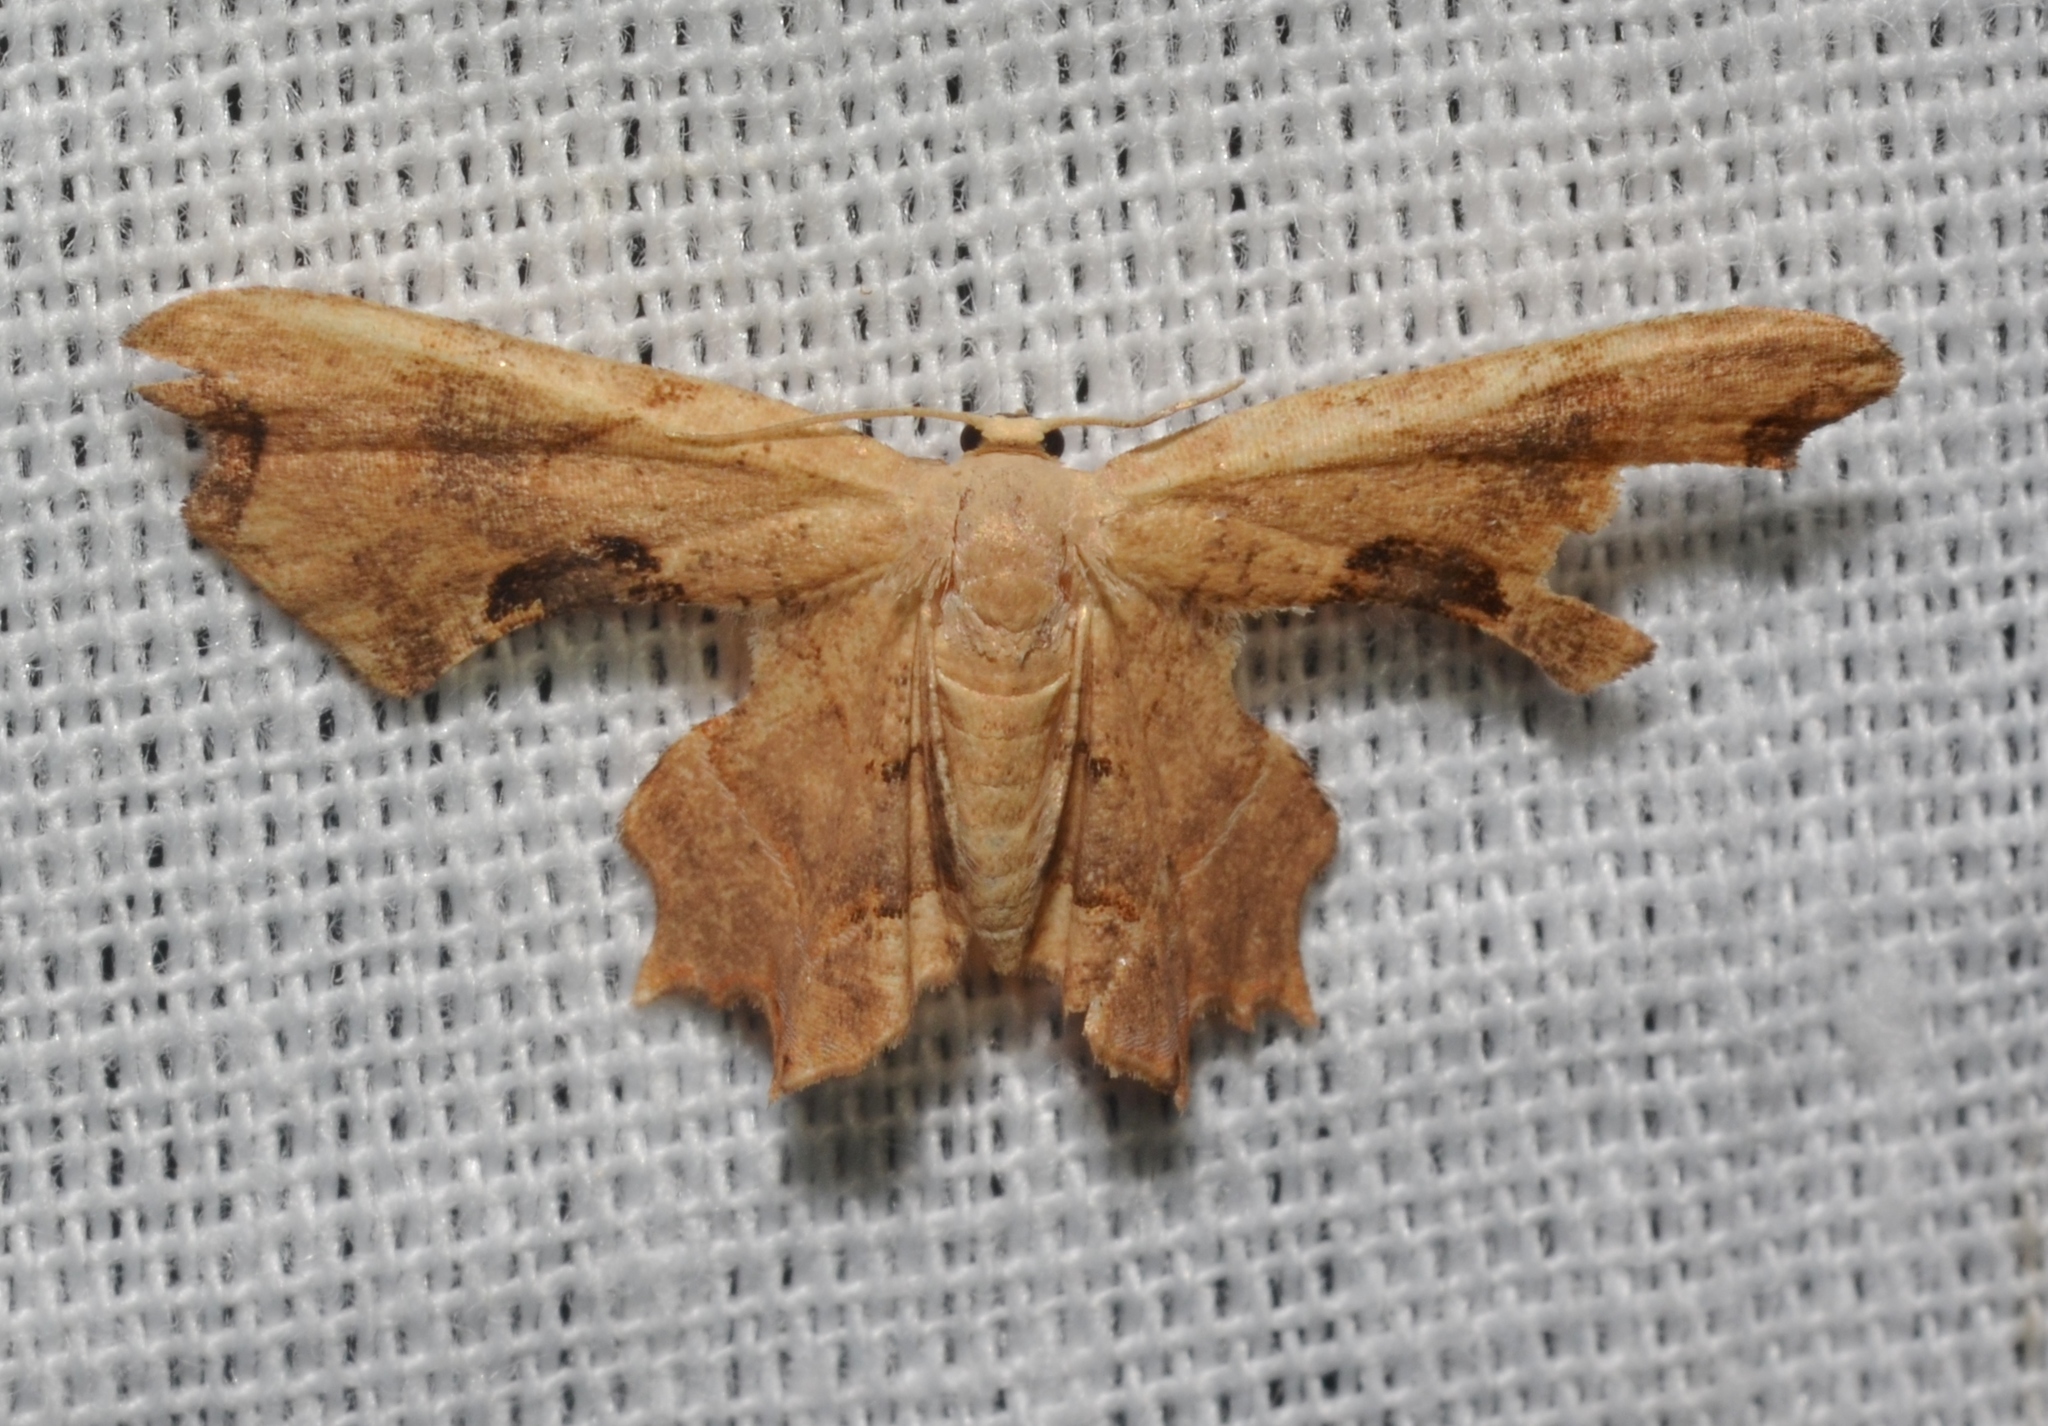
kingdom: Animalia
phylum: Arthropoda
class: Insecta
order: Lepidoptera
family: Uraniidae
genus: Epiplema
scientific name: Epiplema Calledapteryx dryopterata
